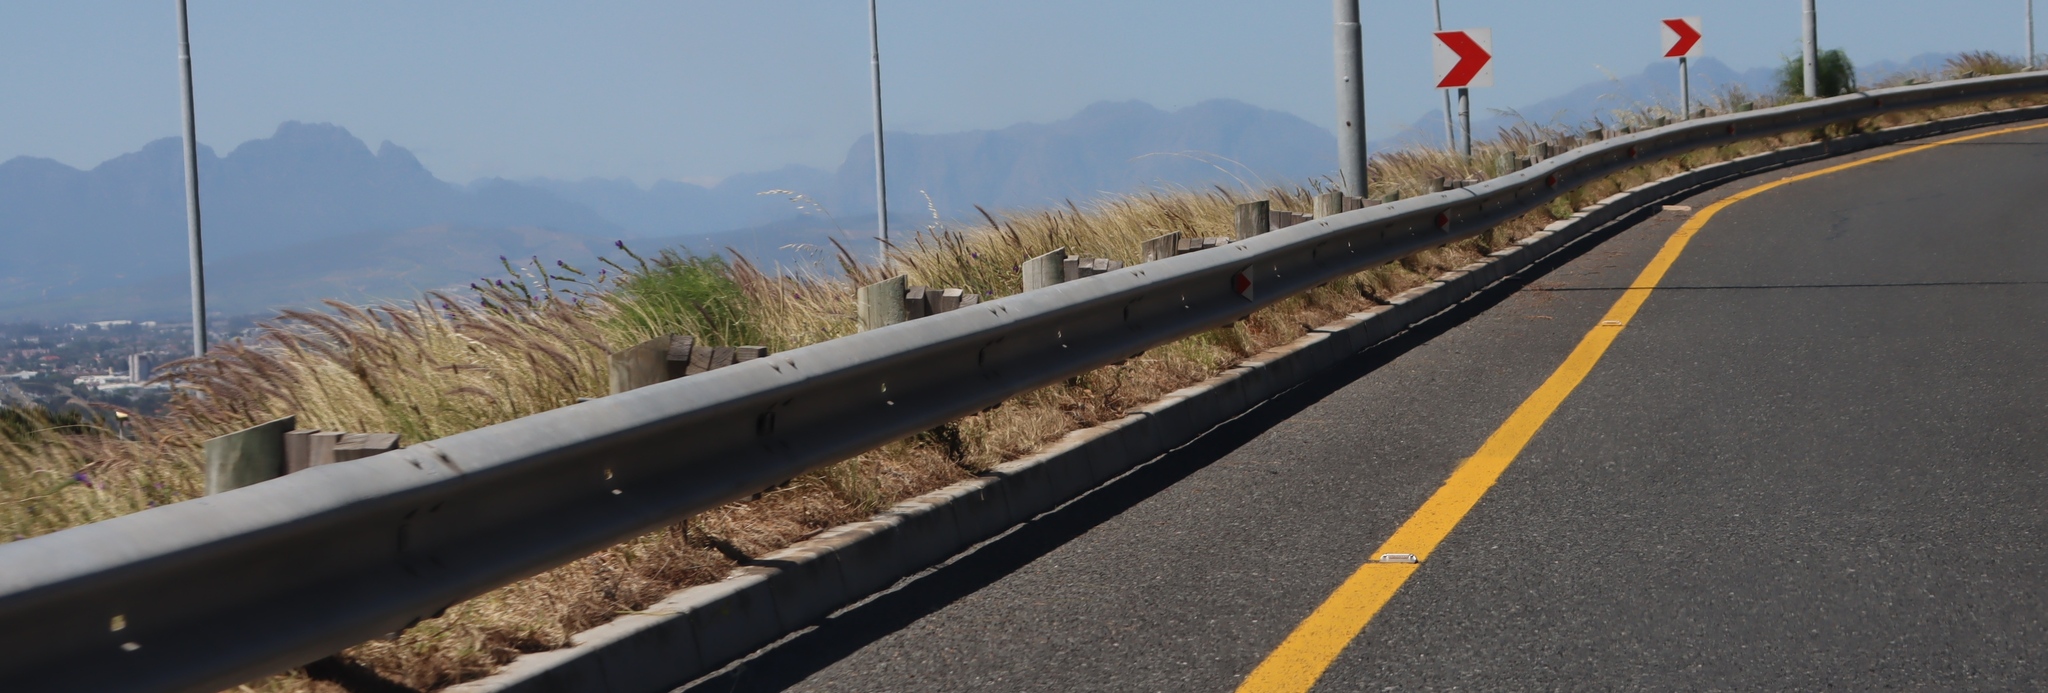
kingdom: Plantae
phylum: Tracheophyta
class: Liliopsida
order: Poales
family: Poaceae
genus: Cenchrus
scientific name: Cenchrus setaceus
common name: Crimson fountaingrass
